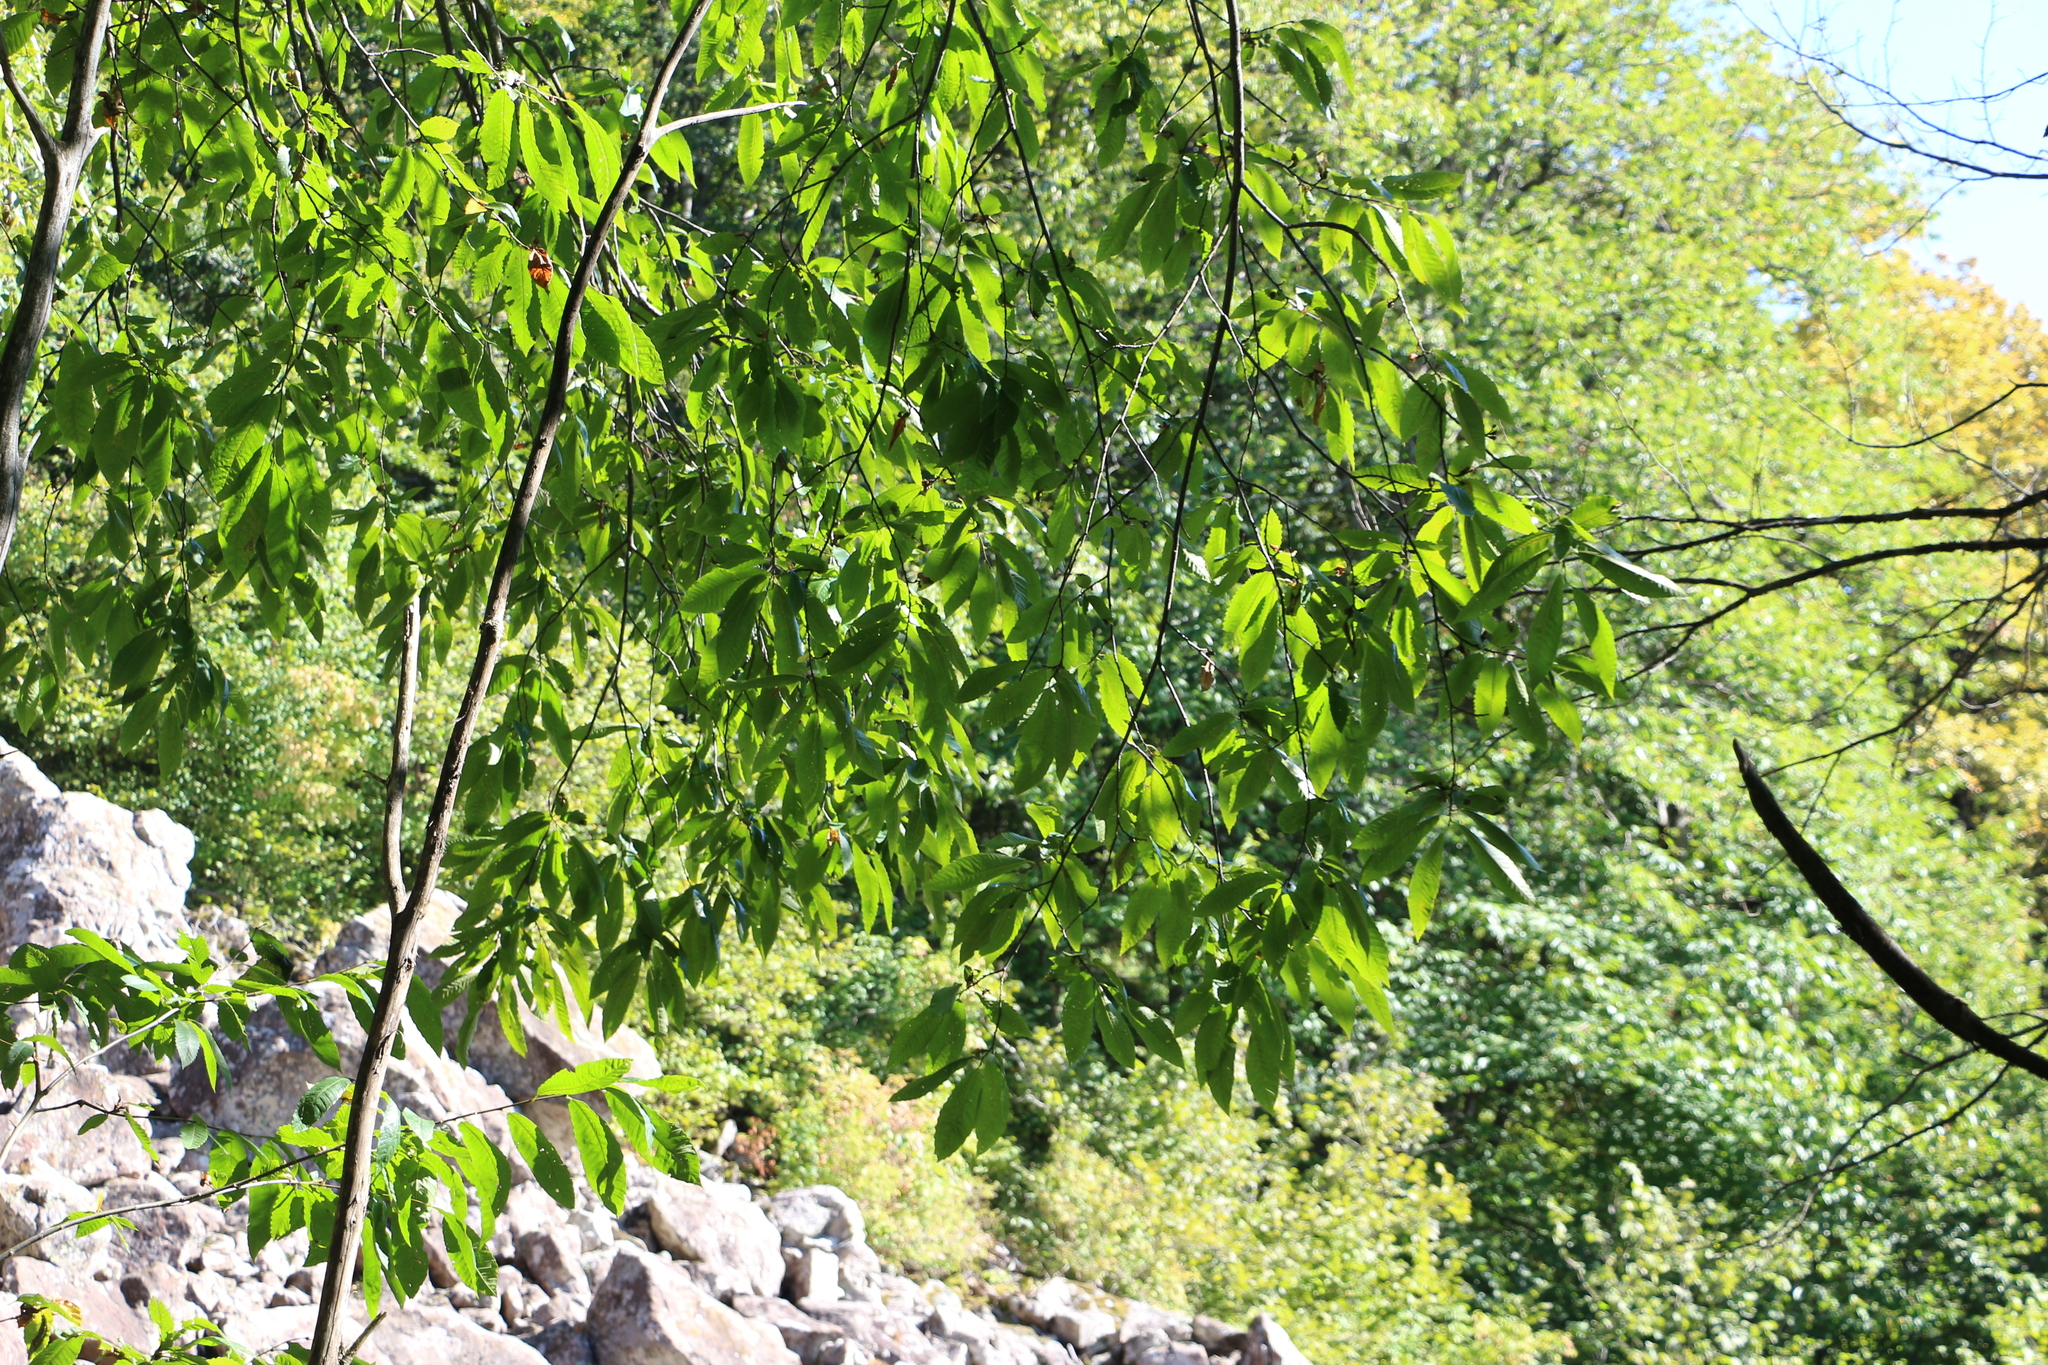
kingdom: Plantae
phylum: Tracheophyta
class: Magnoliopsida
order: Fagales
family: Fagaceae
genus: Castanea
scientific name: Castanea sativa
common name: Sweet chestnut
